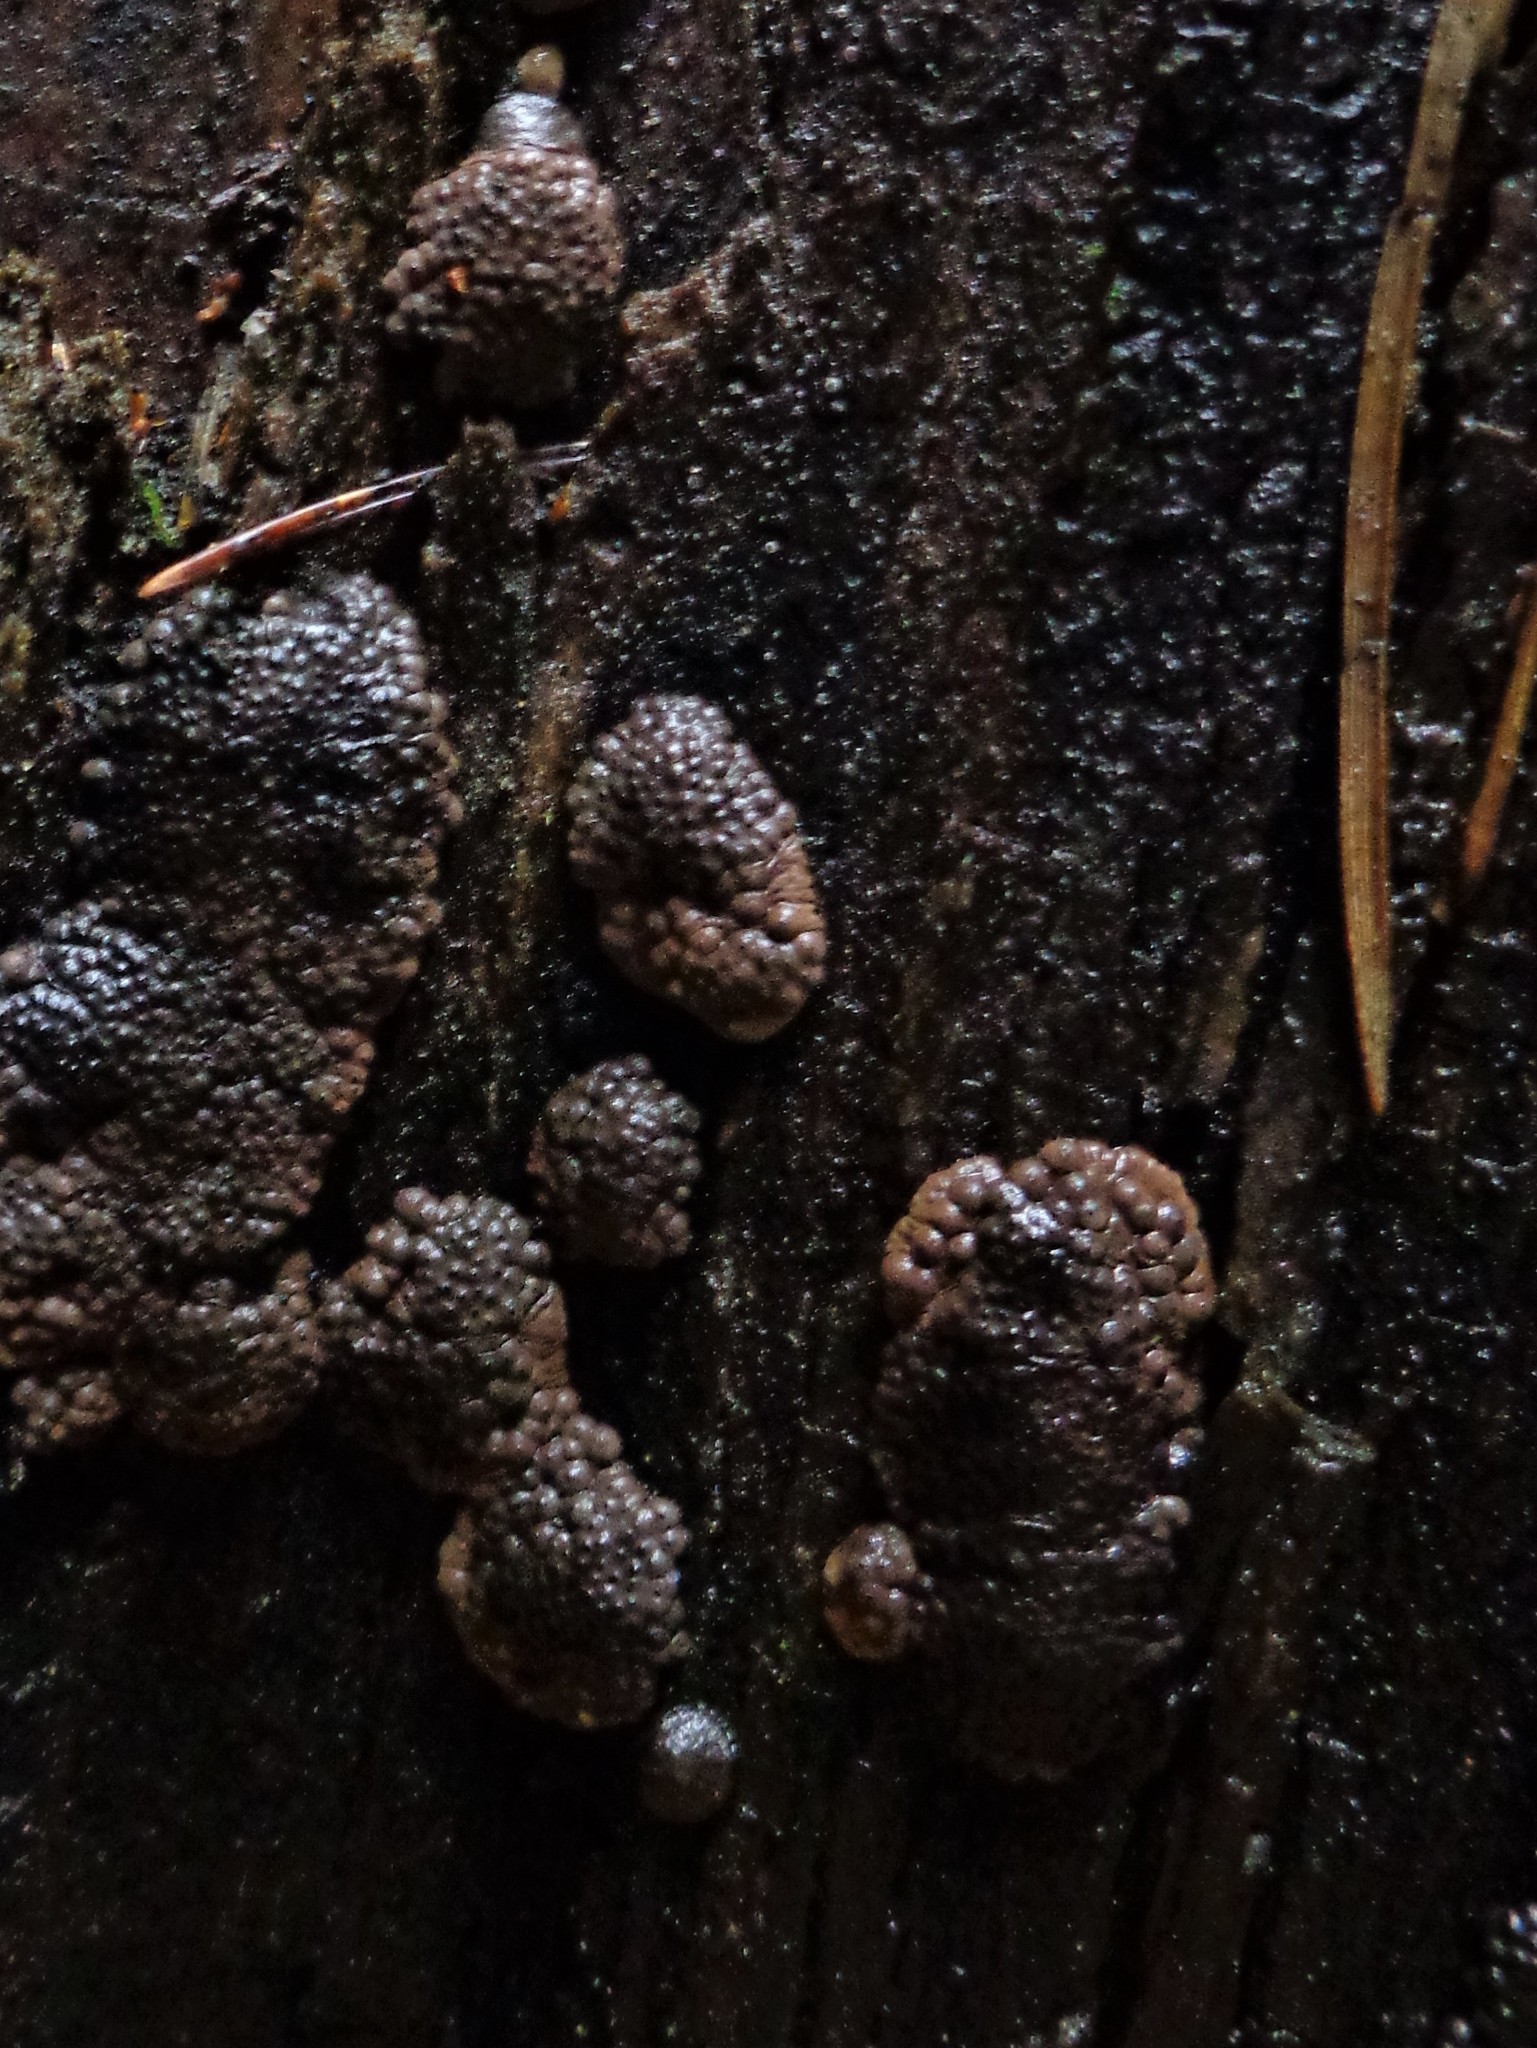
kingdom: Fungi
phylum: Ascomycota
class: Sordariomycetes
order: Xylariales
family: Hypoxylaceae
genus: Jackrogersella
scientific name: Jackrogersella multiformis
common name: Birch woodwart
